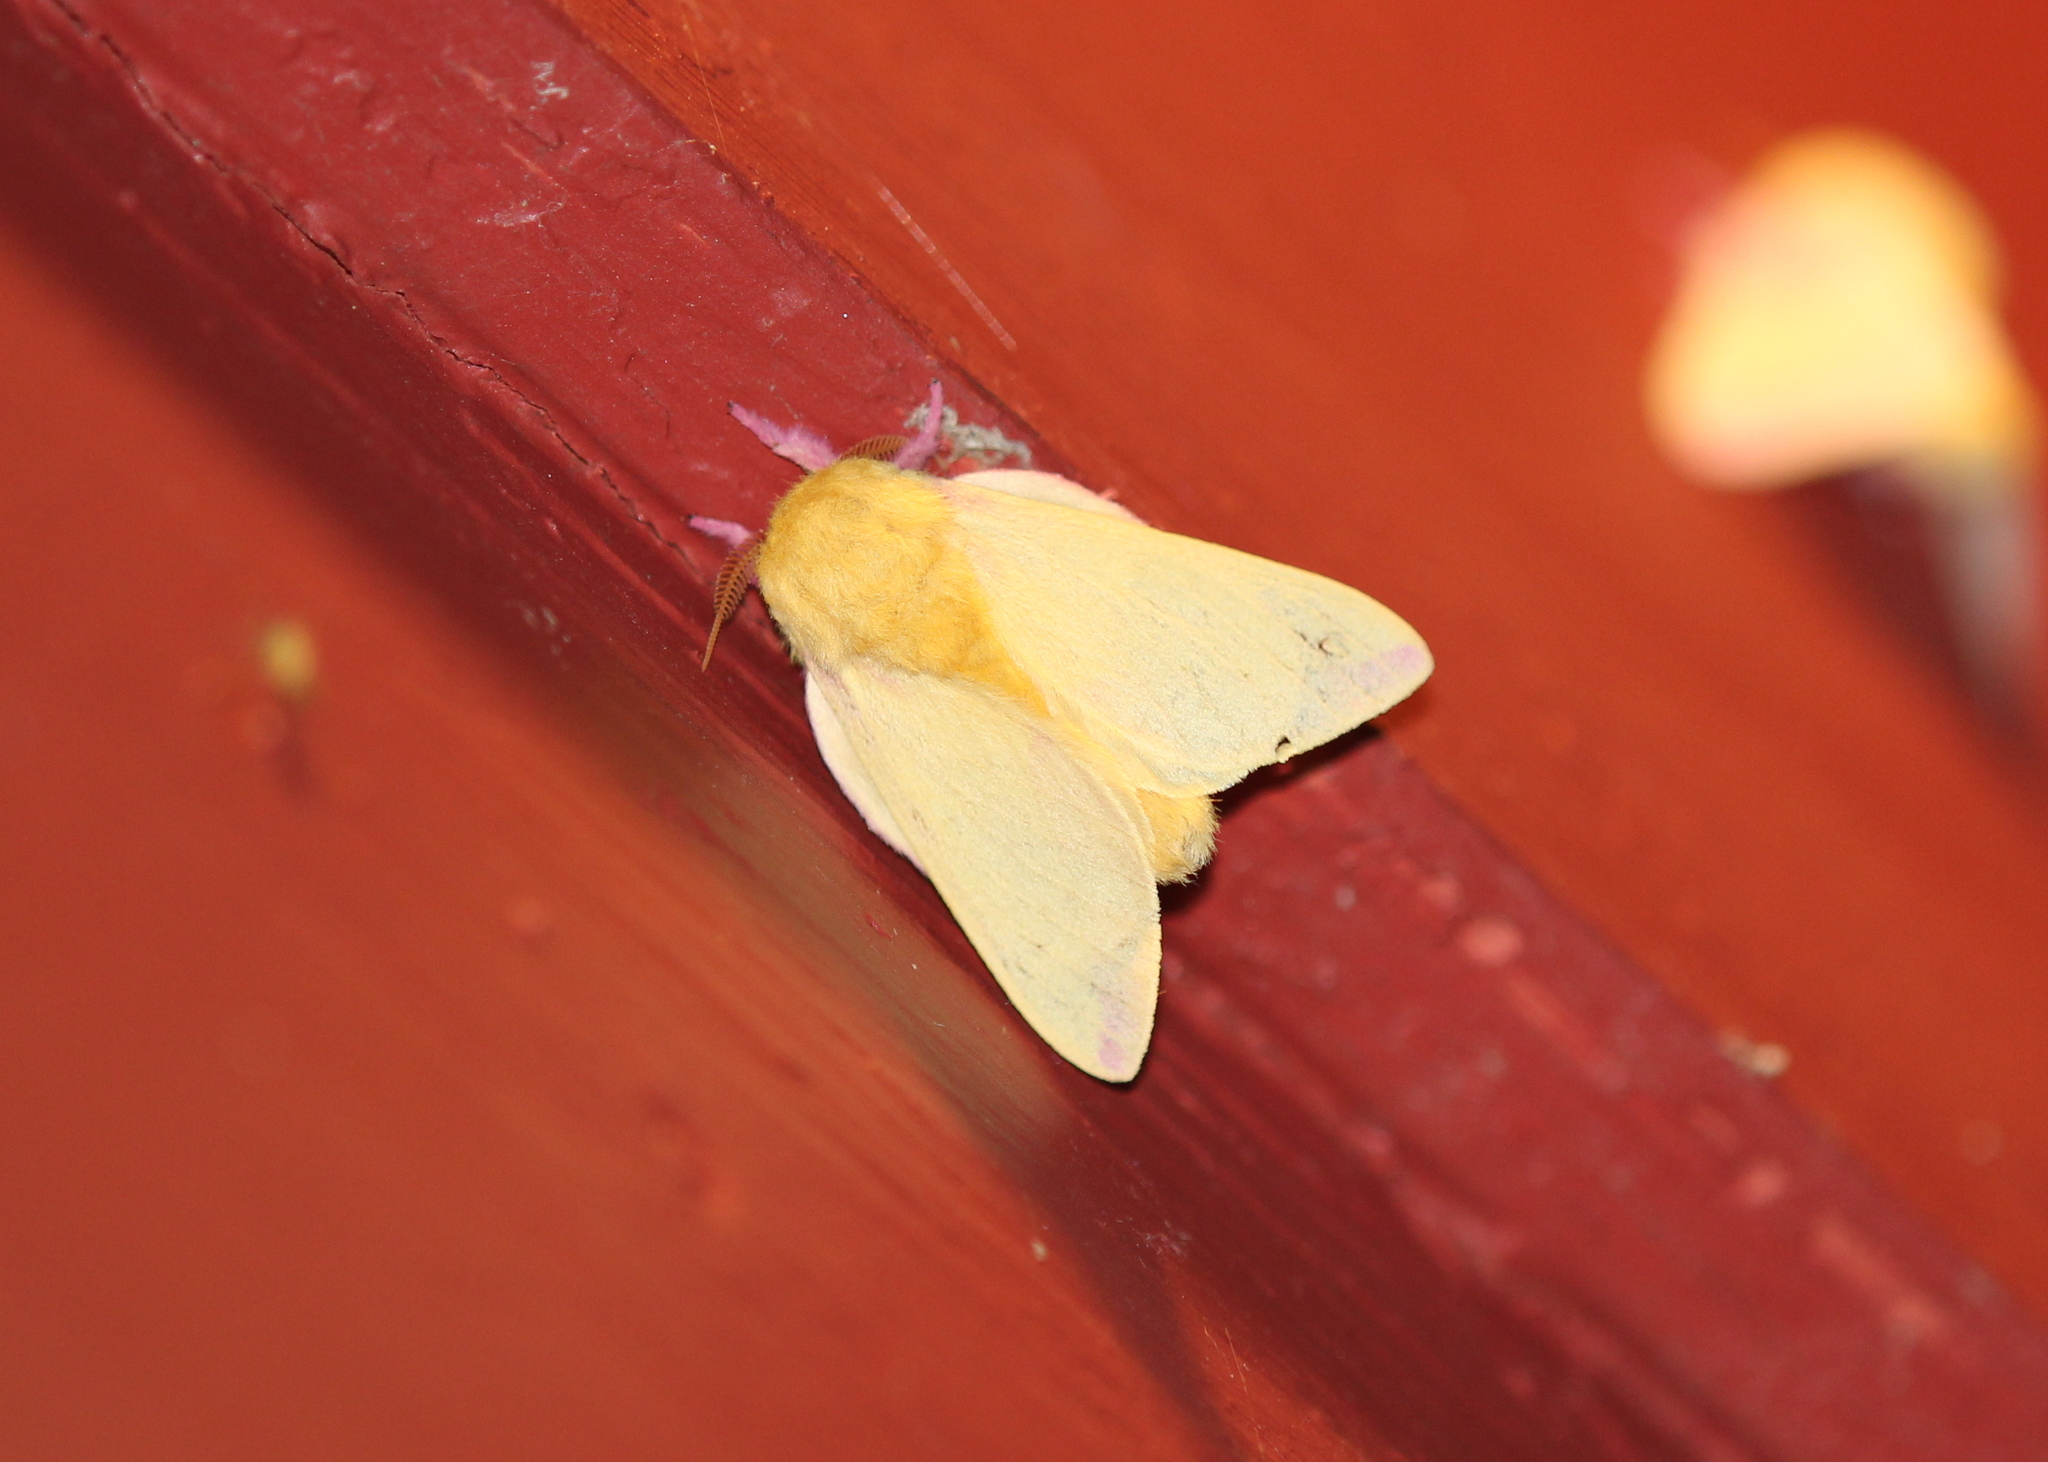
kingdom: Animalia
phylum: Arthropoda
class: Insecta
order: Lepidoptera
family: Saturniidae
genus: Dryocampa
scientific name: Dryocampa rubicunda
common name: Rosy maple moth
